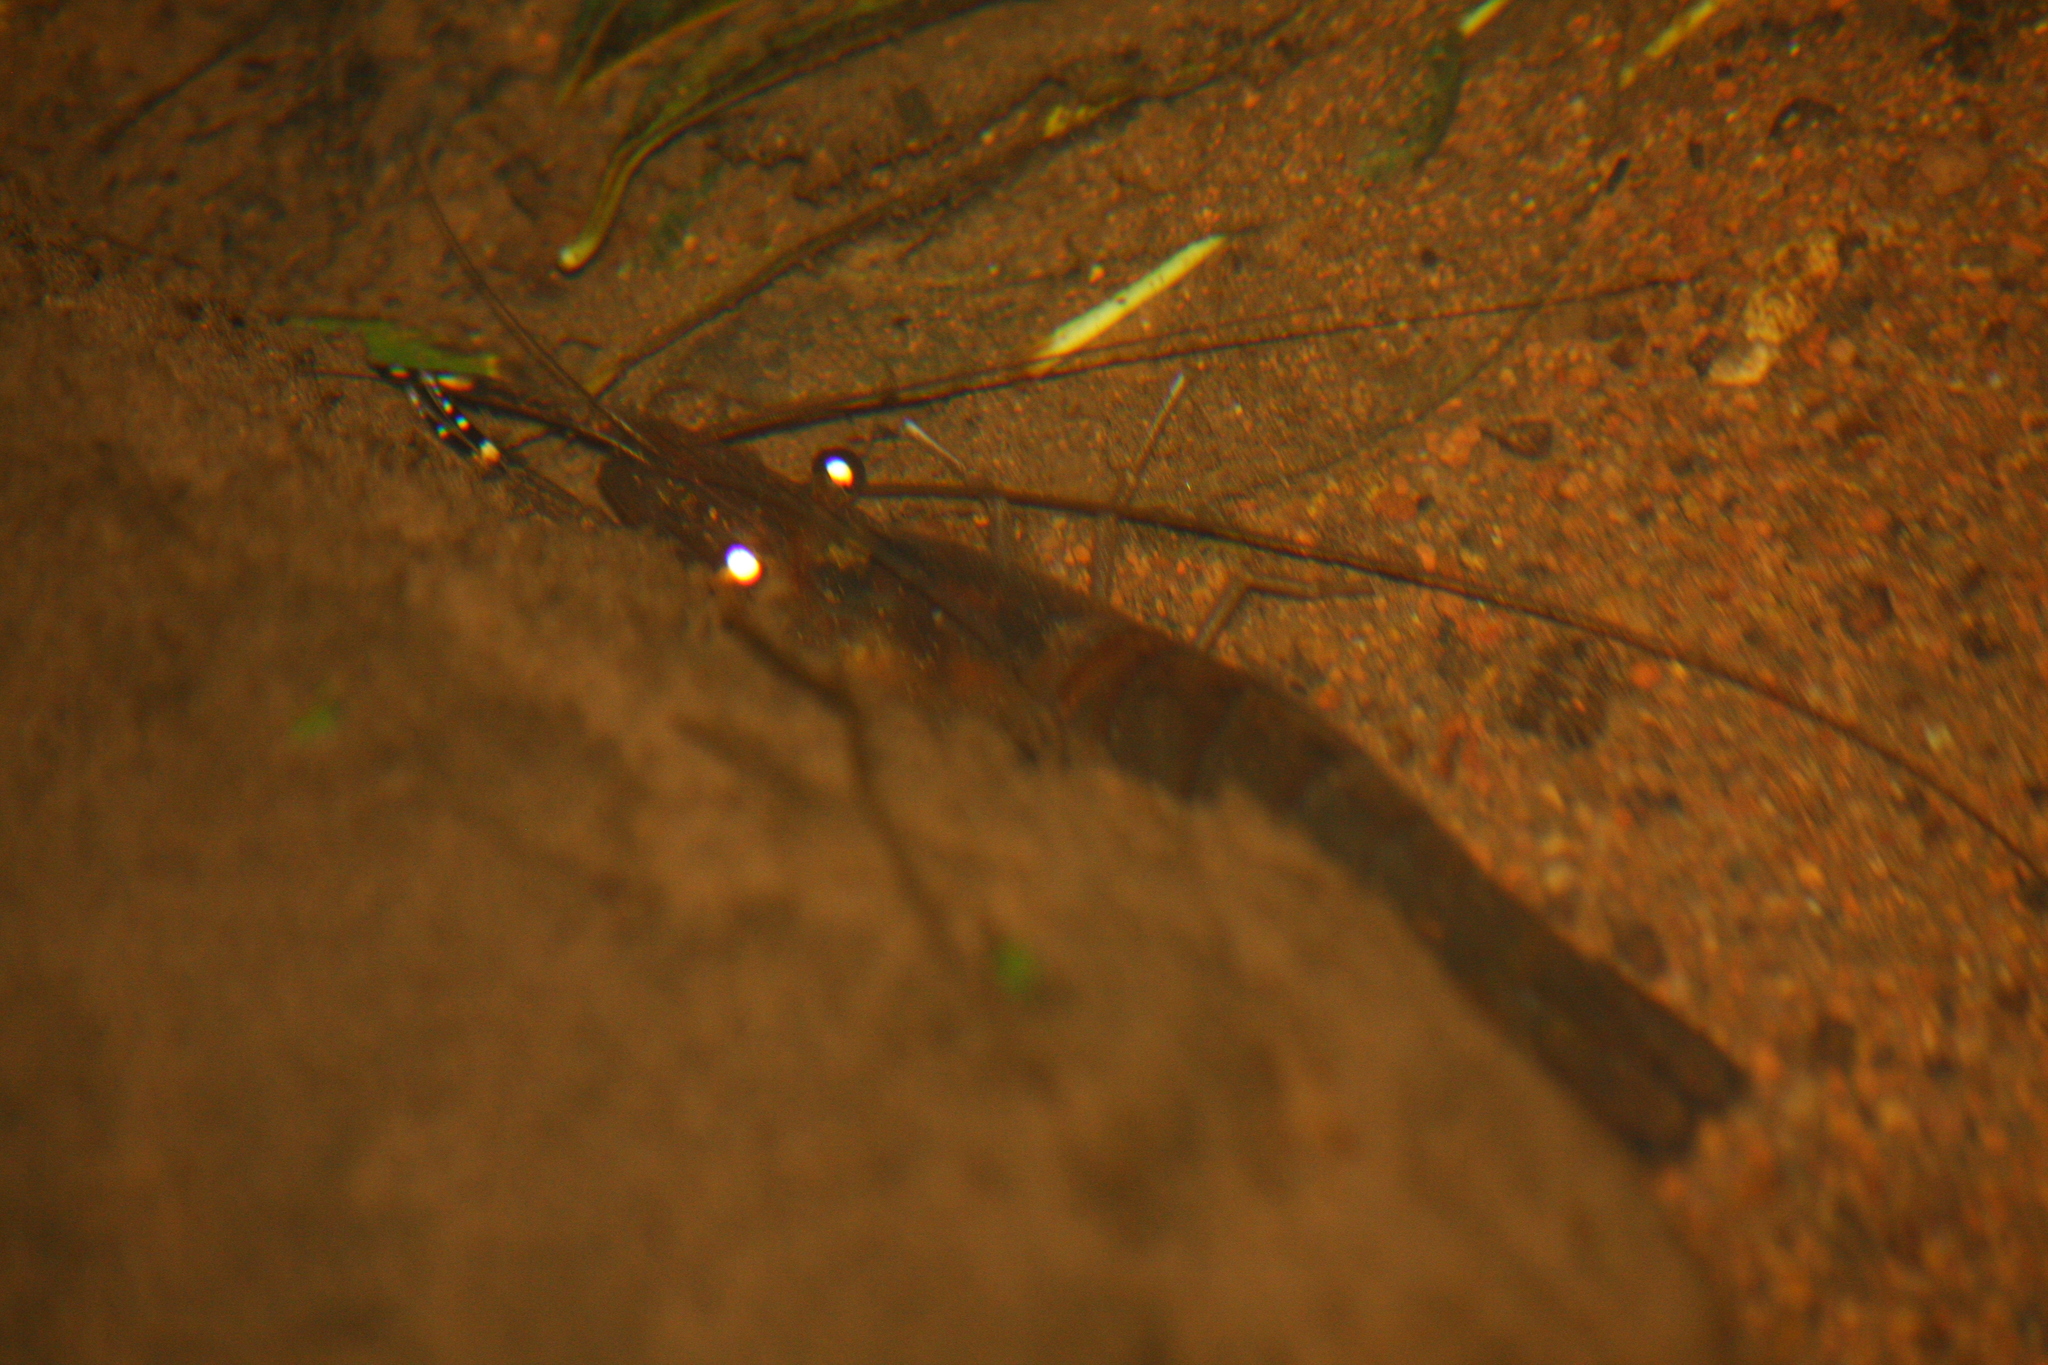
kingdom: Animalia
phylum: Arthropoda
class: Malacostraca
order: Decapoda
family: Palaemonidae
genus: Macrobrachium
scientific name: Macrobrachium lar
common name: Monkey river prawn
